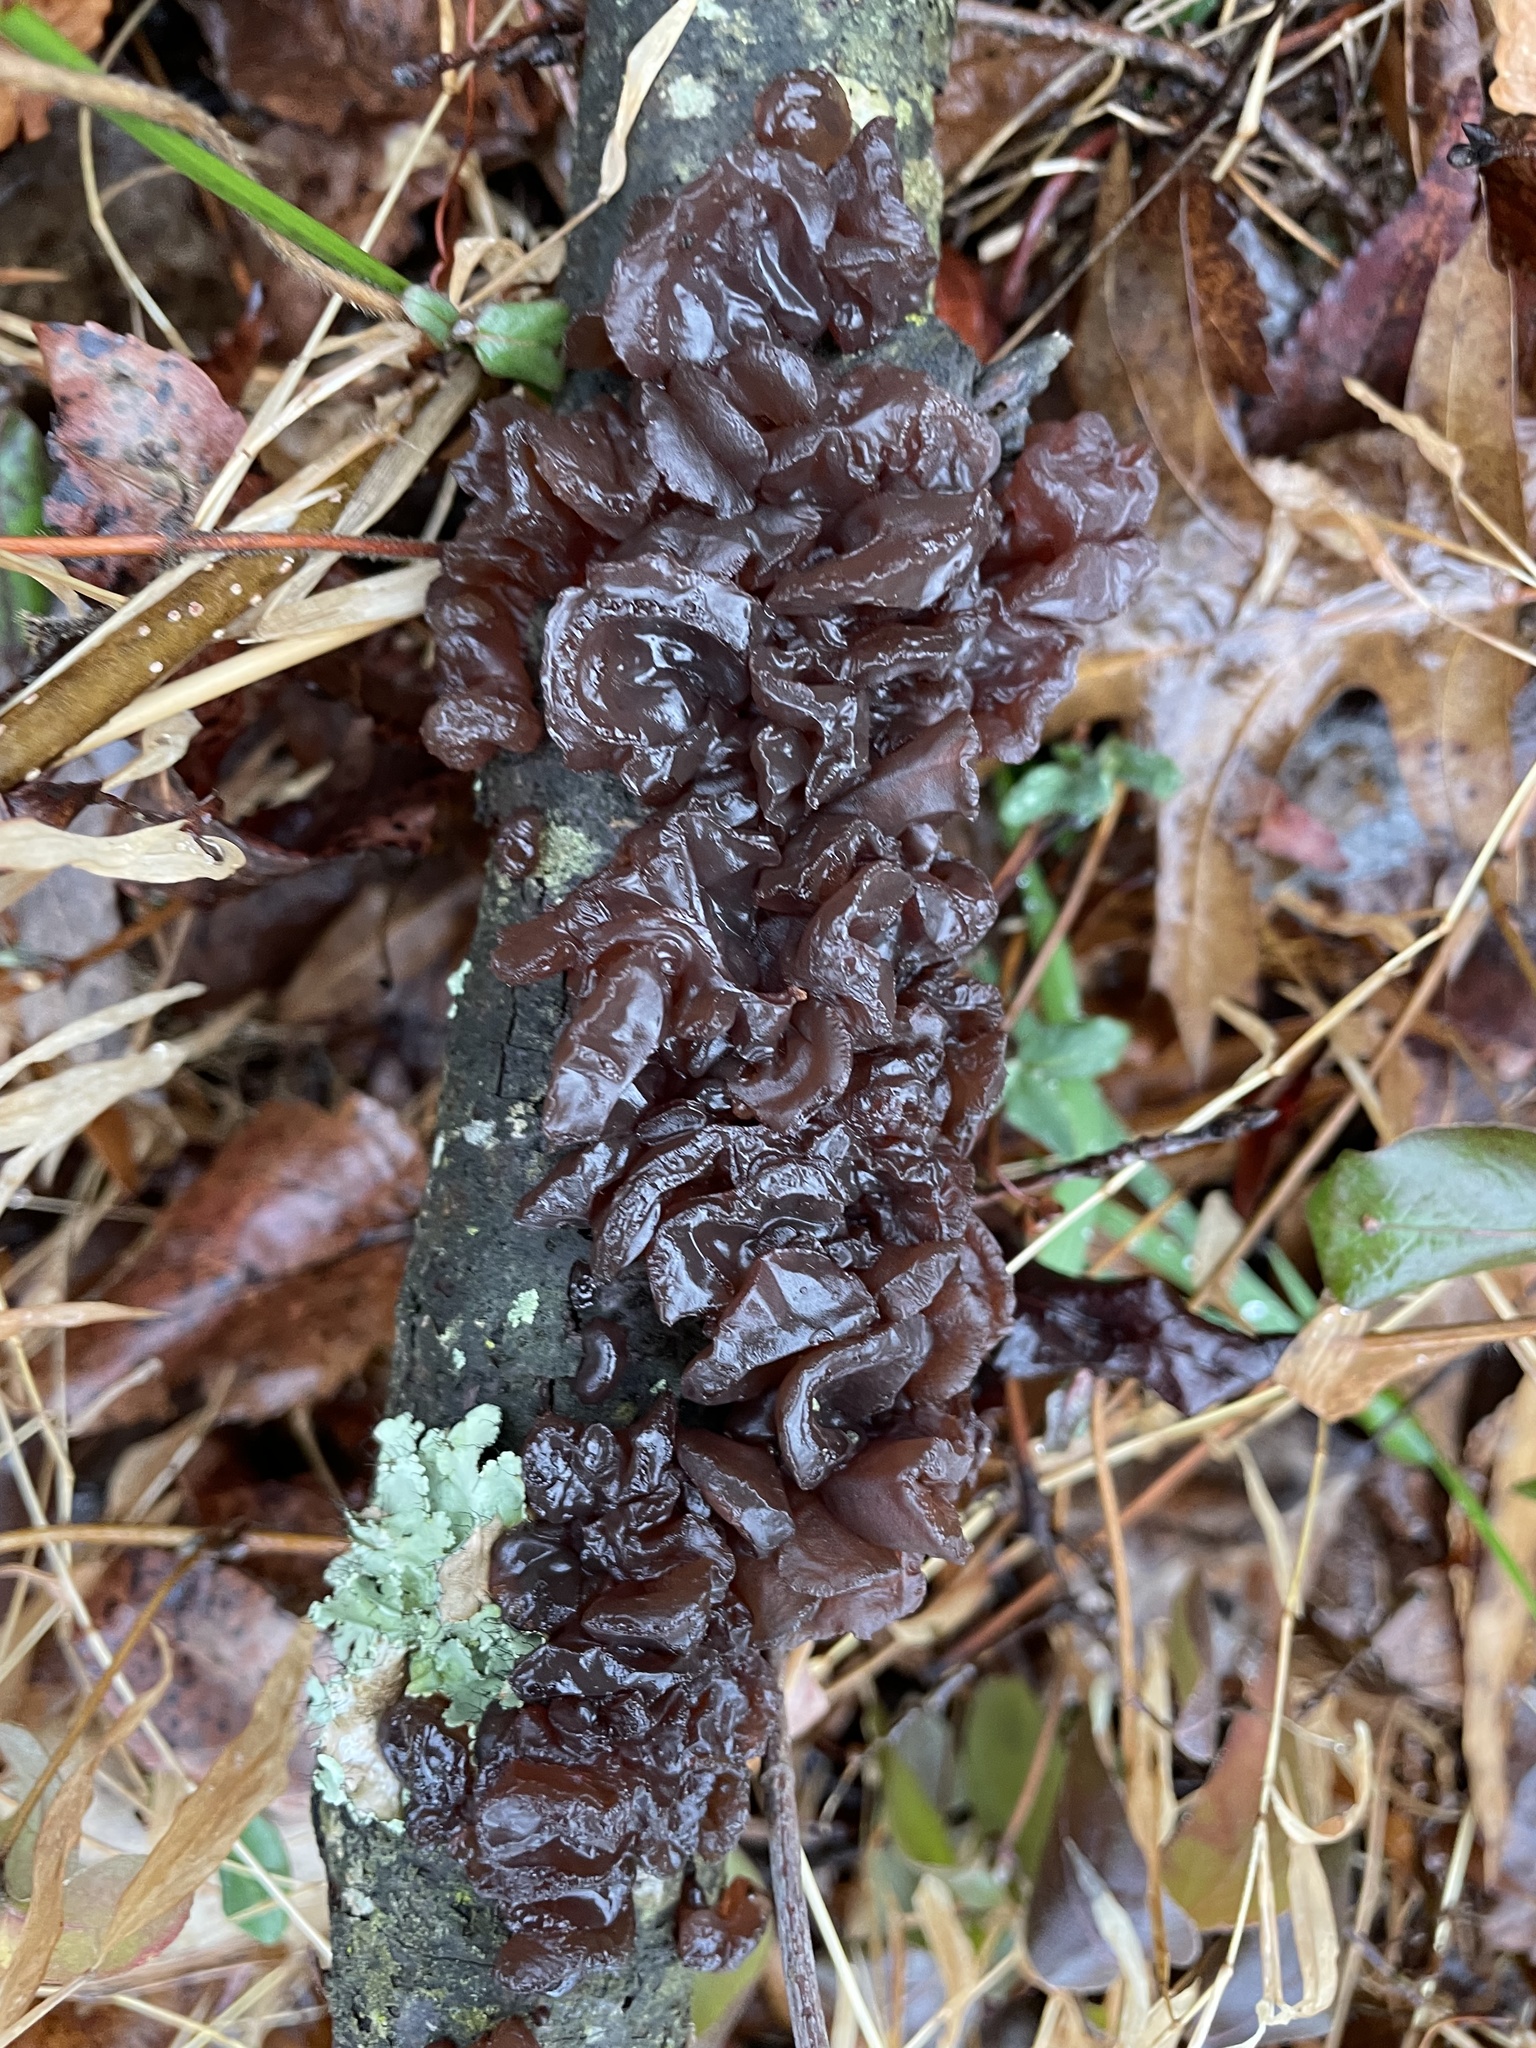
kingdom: Fungi
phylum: Basidiomycota
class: Agaricomycetes
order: Auriculariales
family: Auriculariaceae
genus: Exidia
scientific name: Exidia
